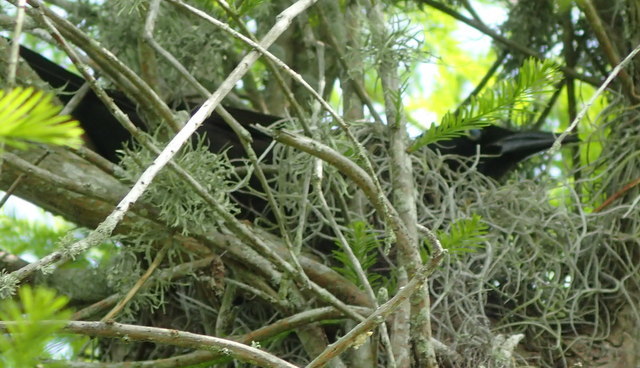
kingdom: Animalia
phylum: Chordata
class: Aves
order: Passeriformes
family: Icteridae
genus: Quiscalus
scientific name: Quiscalus quiscula
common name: Common grackle
